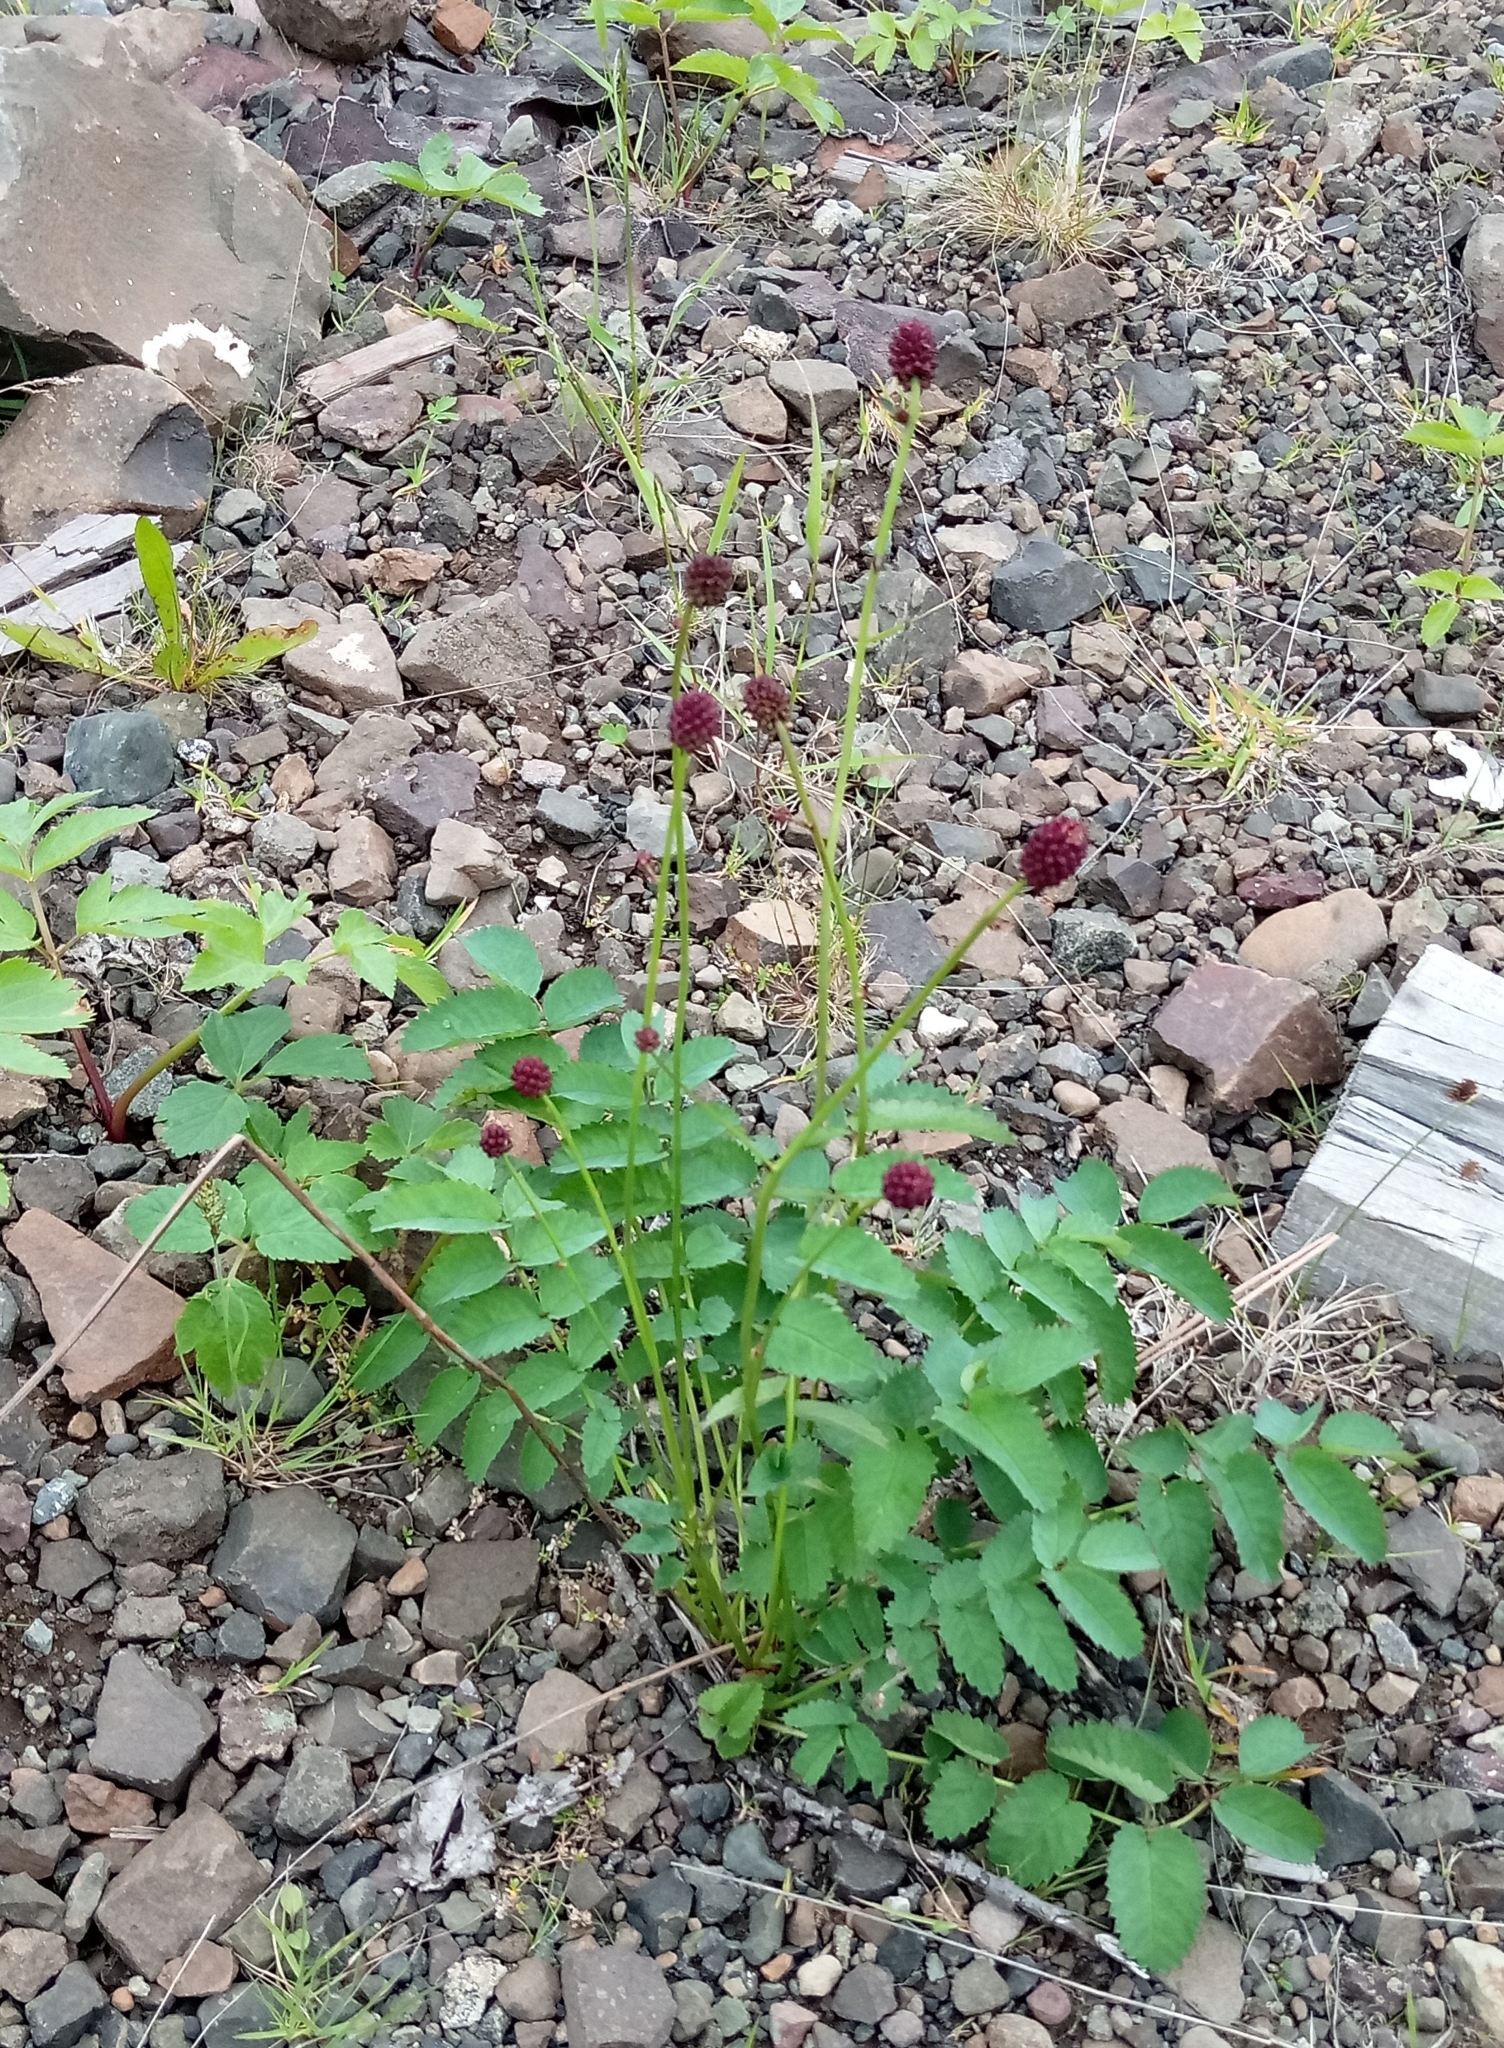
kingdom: Plantae
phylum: Tracheophyta
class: Magnoliopsida
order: Rosales
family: Rosaceae
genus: Sanguisorba
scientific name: Sanguisorba officinalis
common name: Great burnet
